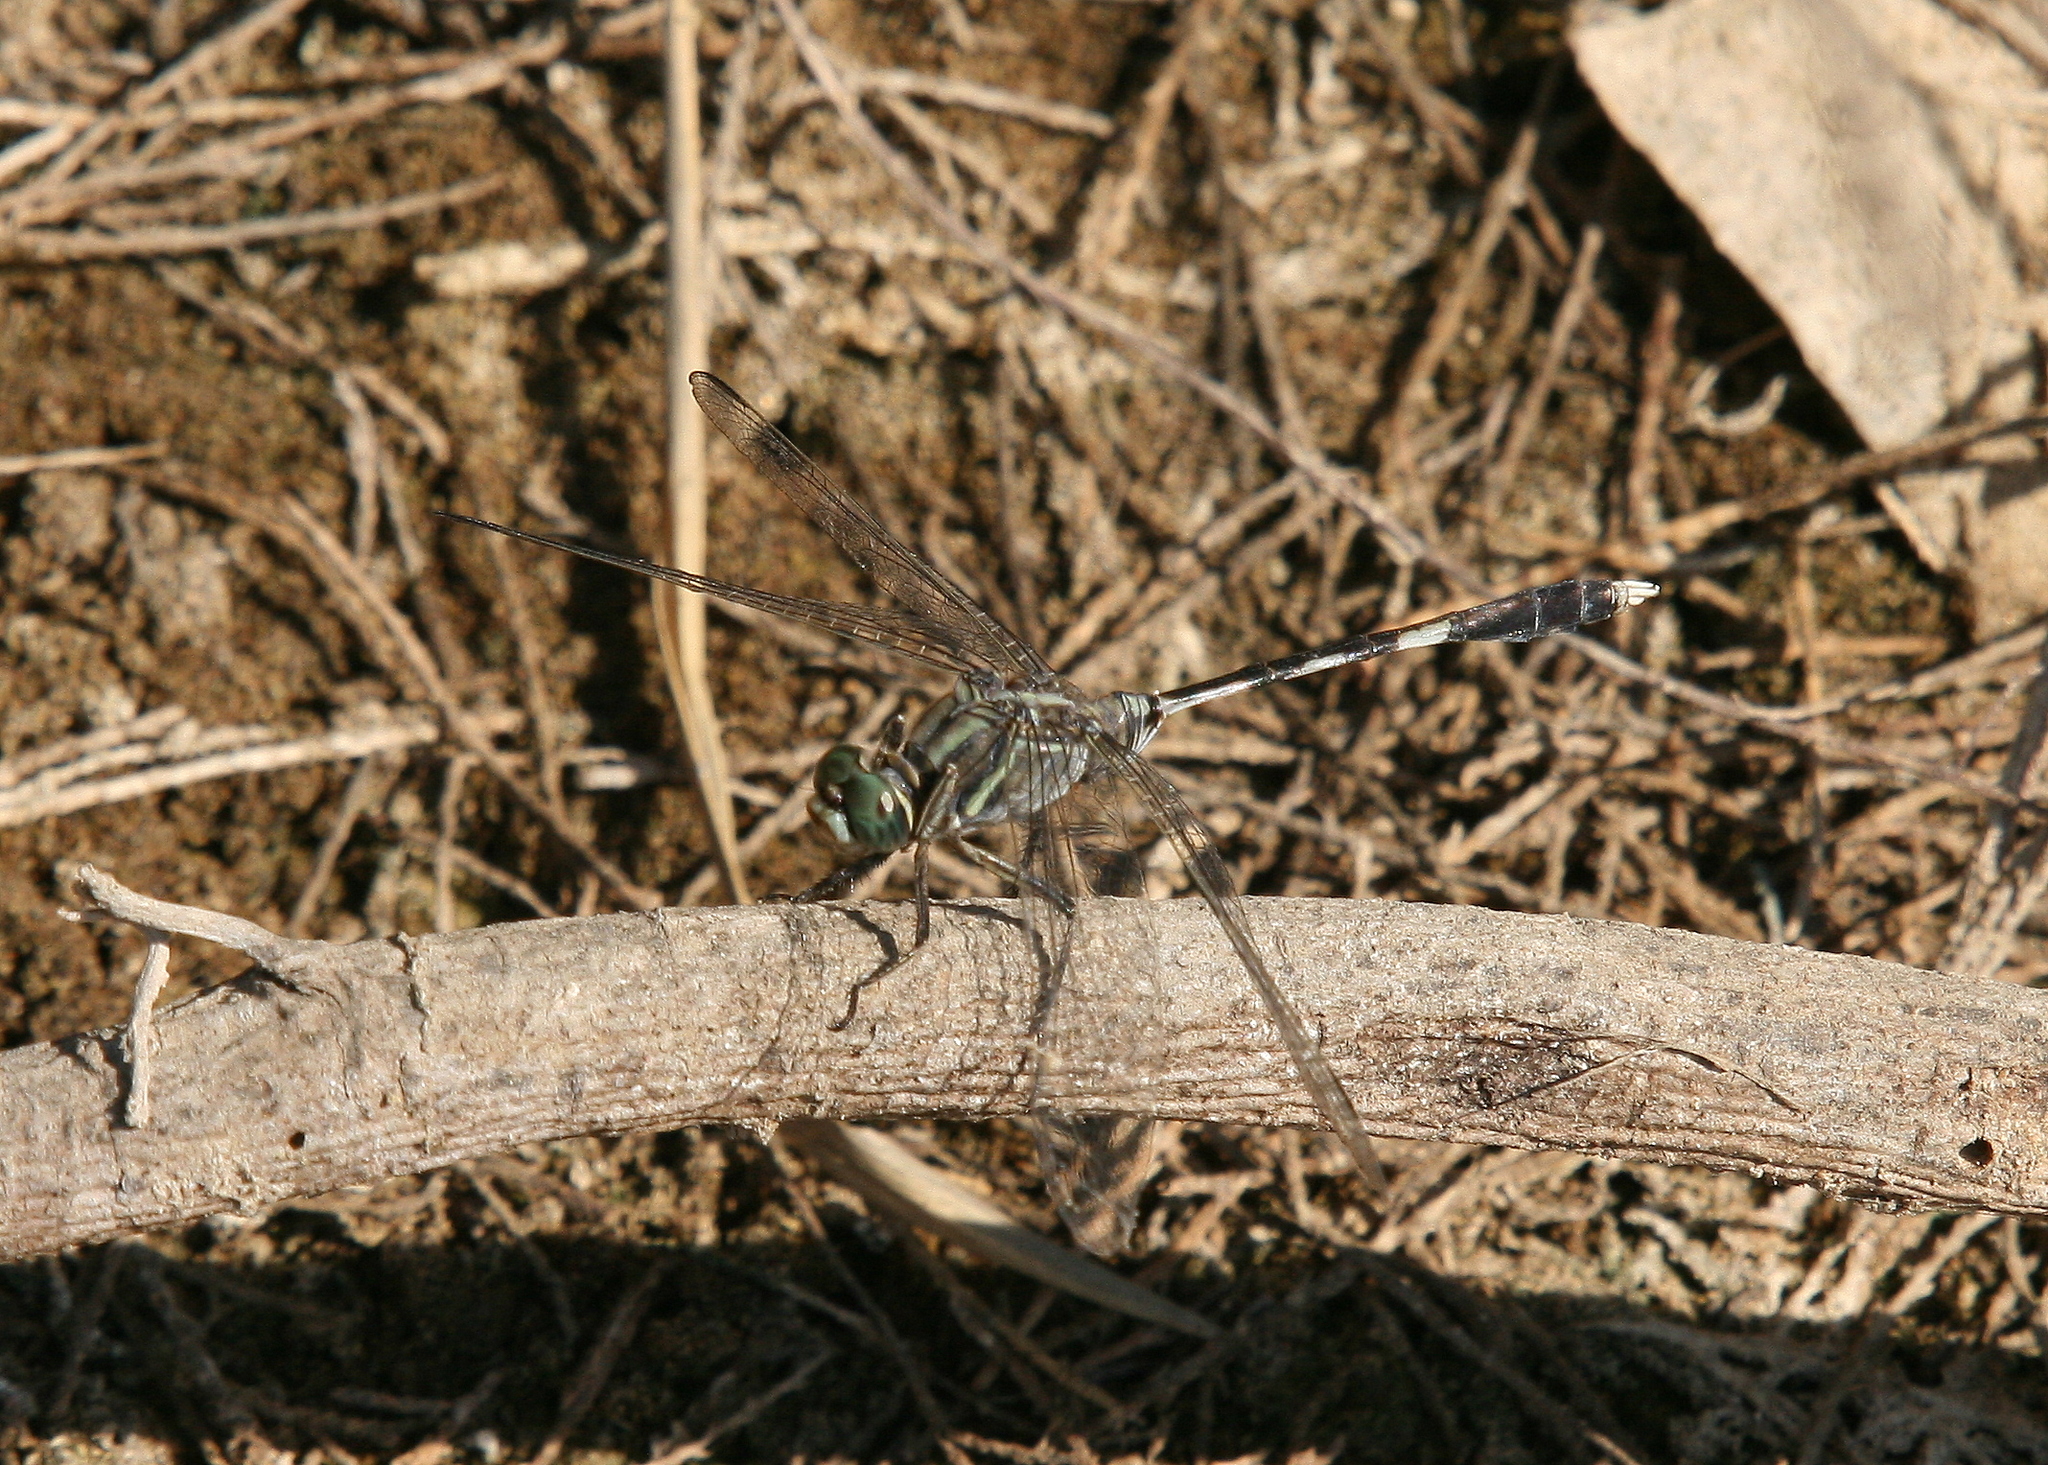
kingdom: Animalia
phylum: Arthropoda
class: Insecta
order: Odonata
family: Libellulidae
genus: Orthetrum
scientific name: Orthetrum sabina
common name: Slender skimmer
